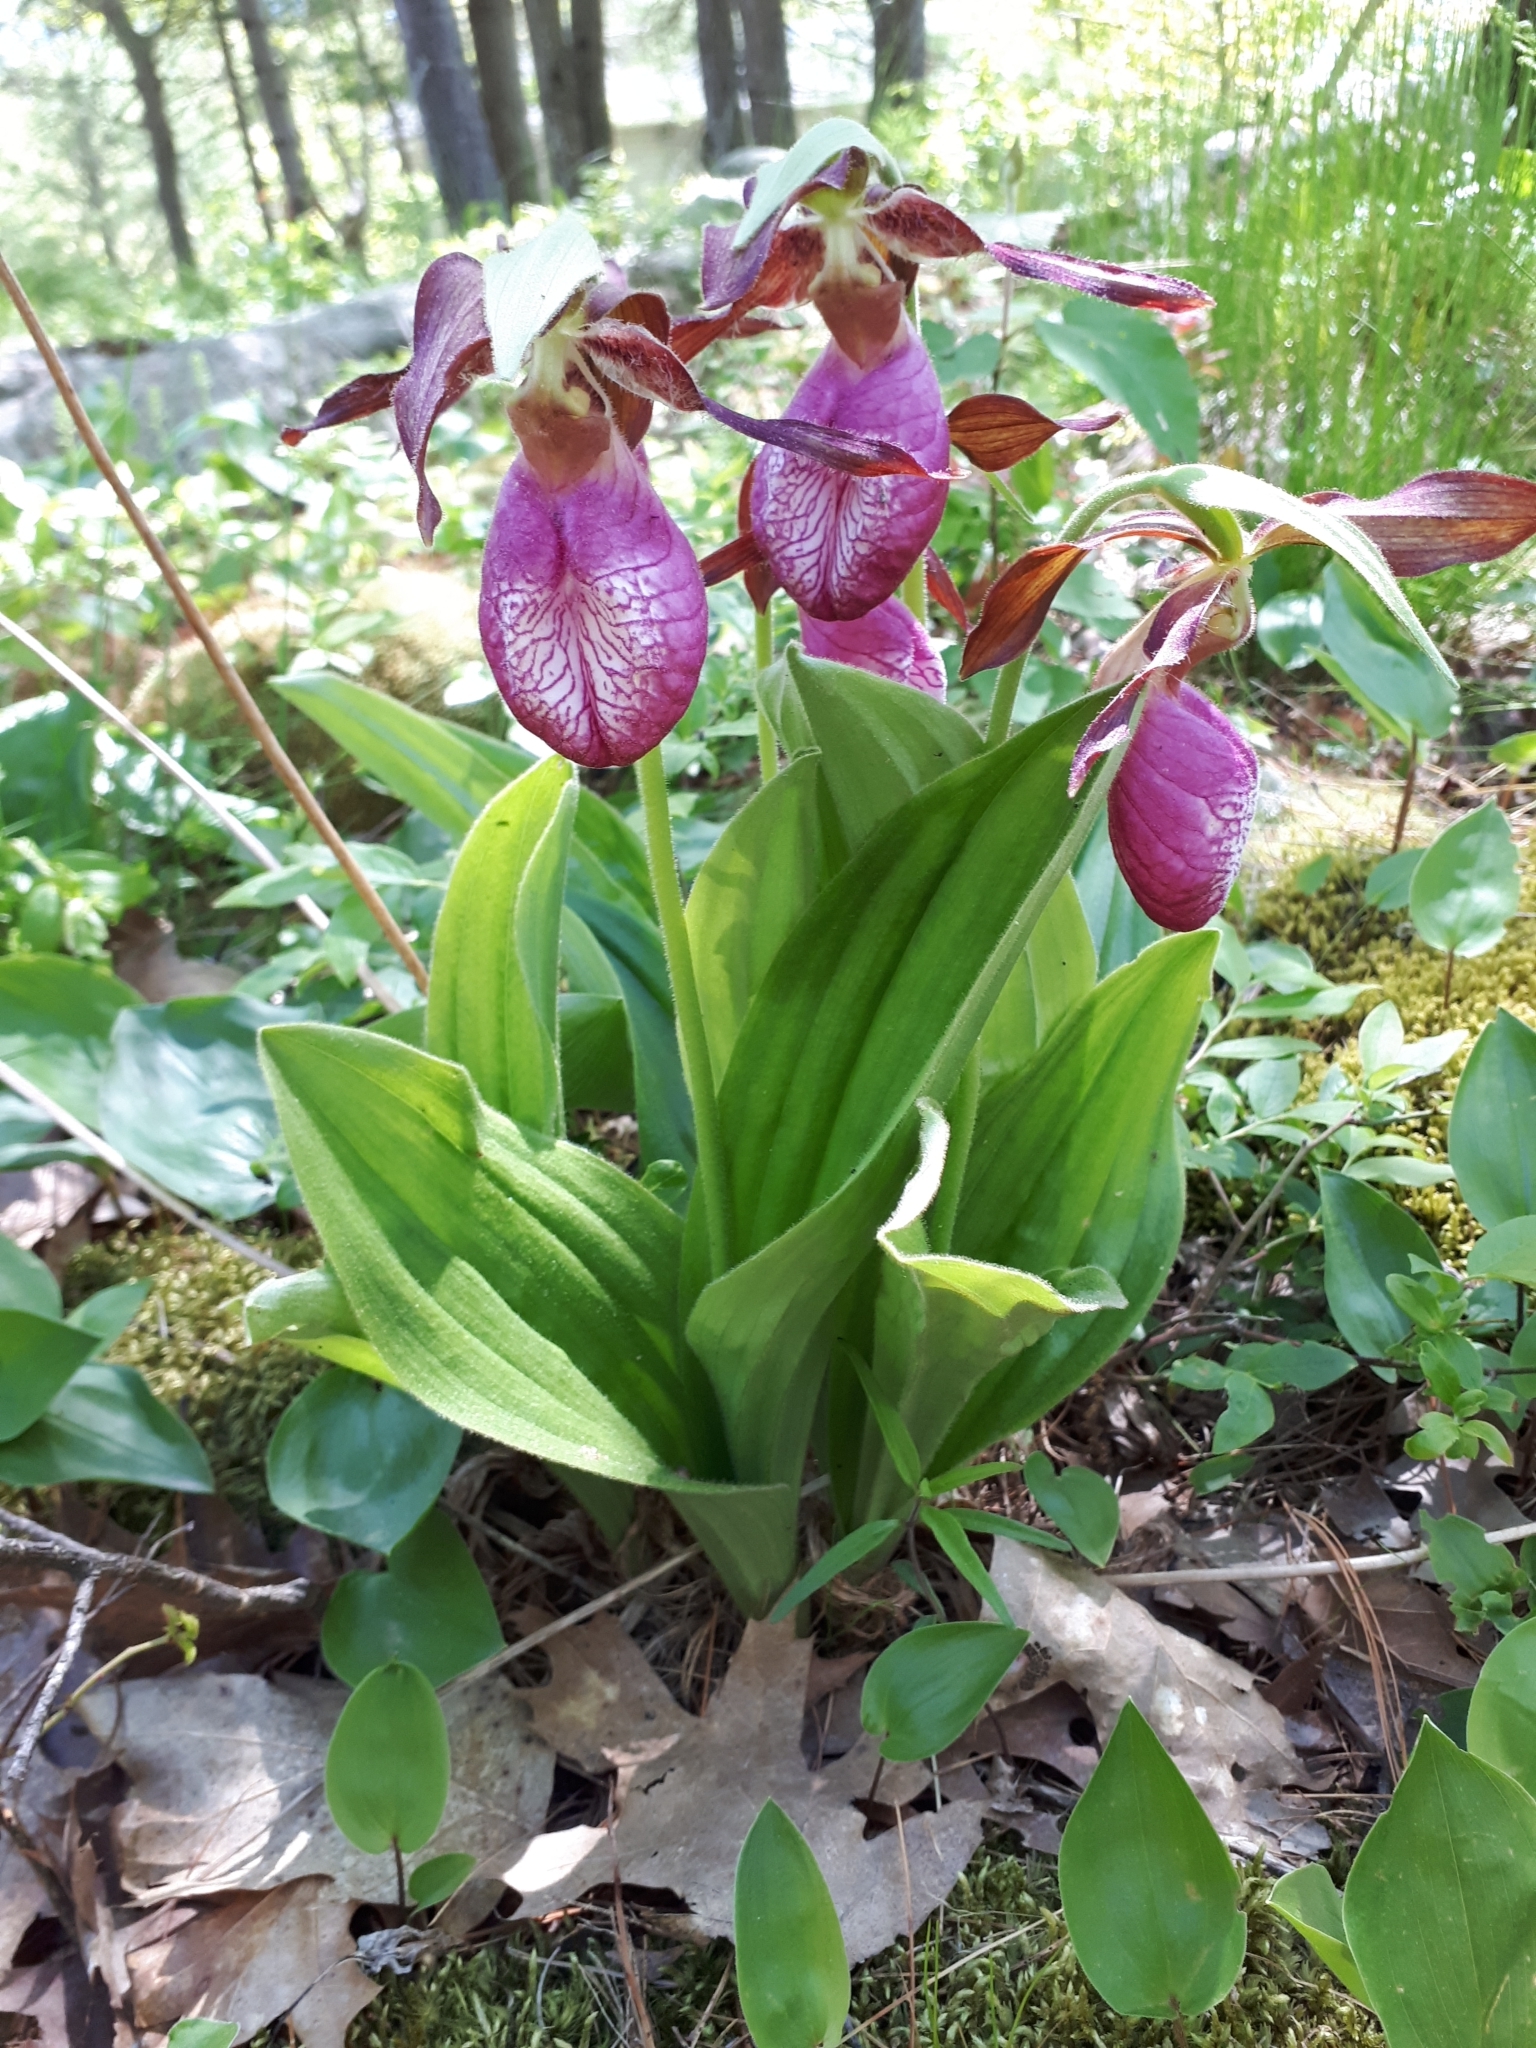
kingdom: Plantae
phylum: Tracheophyta
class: Liliopsida
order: Asparagales
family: Orchidaceae
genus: Cypripedium
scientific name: Cypripedium acaule
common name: Pink lady's-slipper
